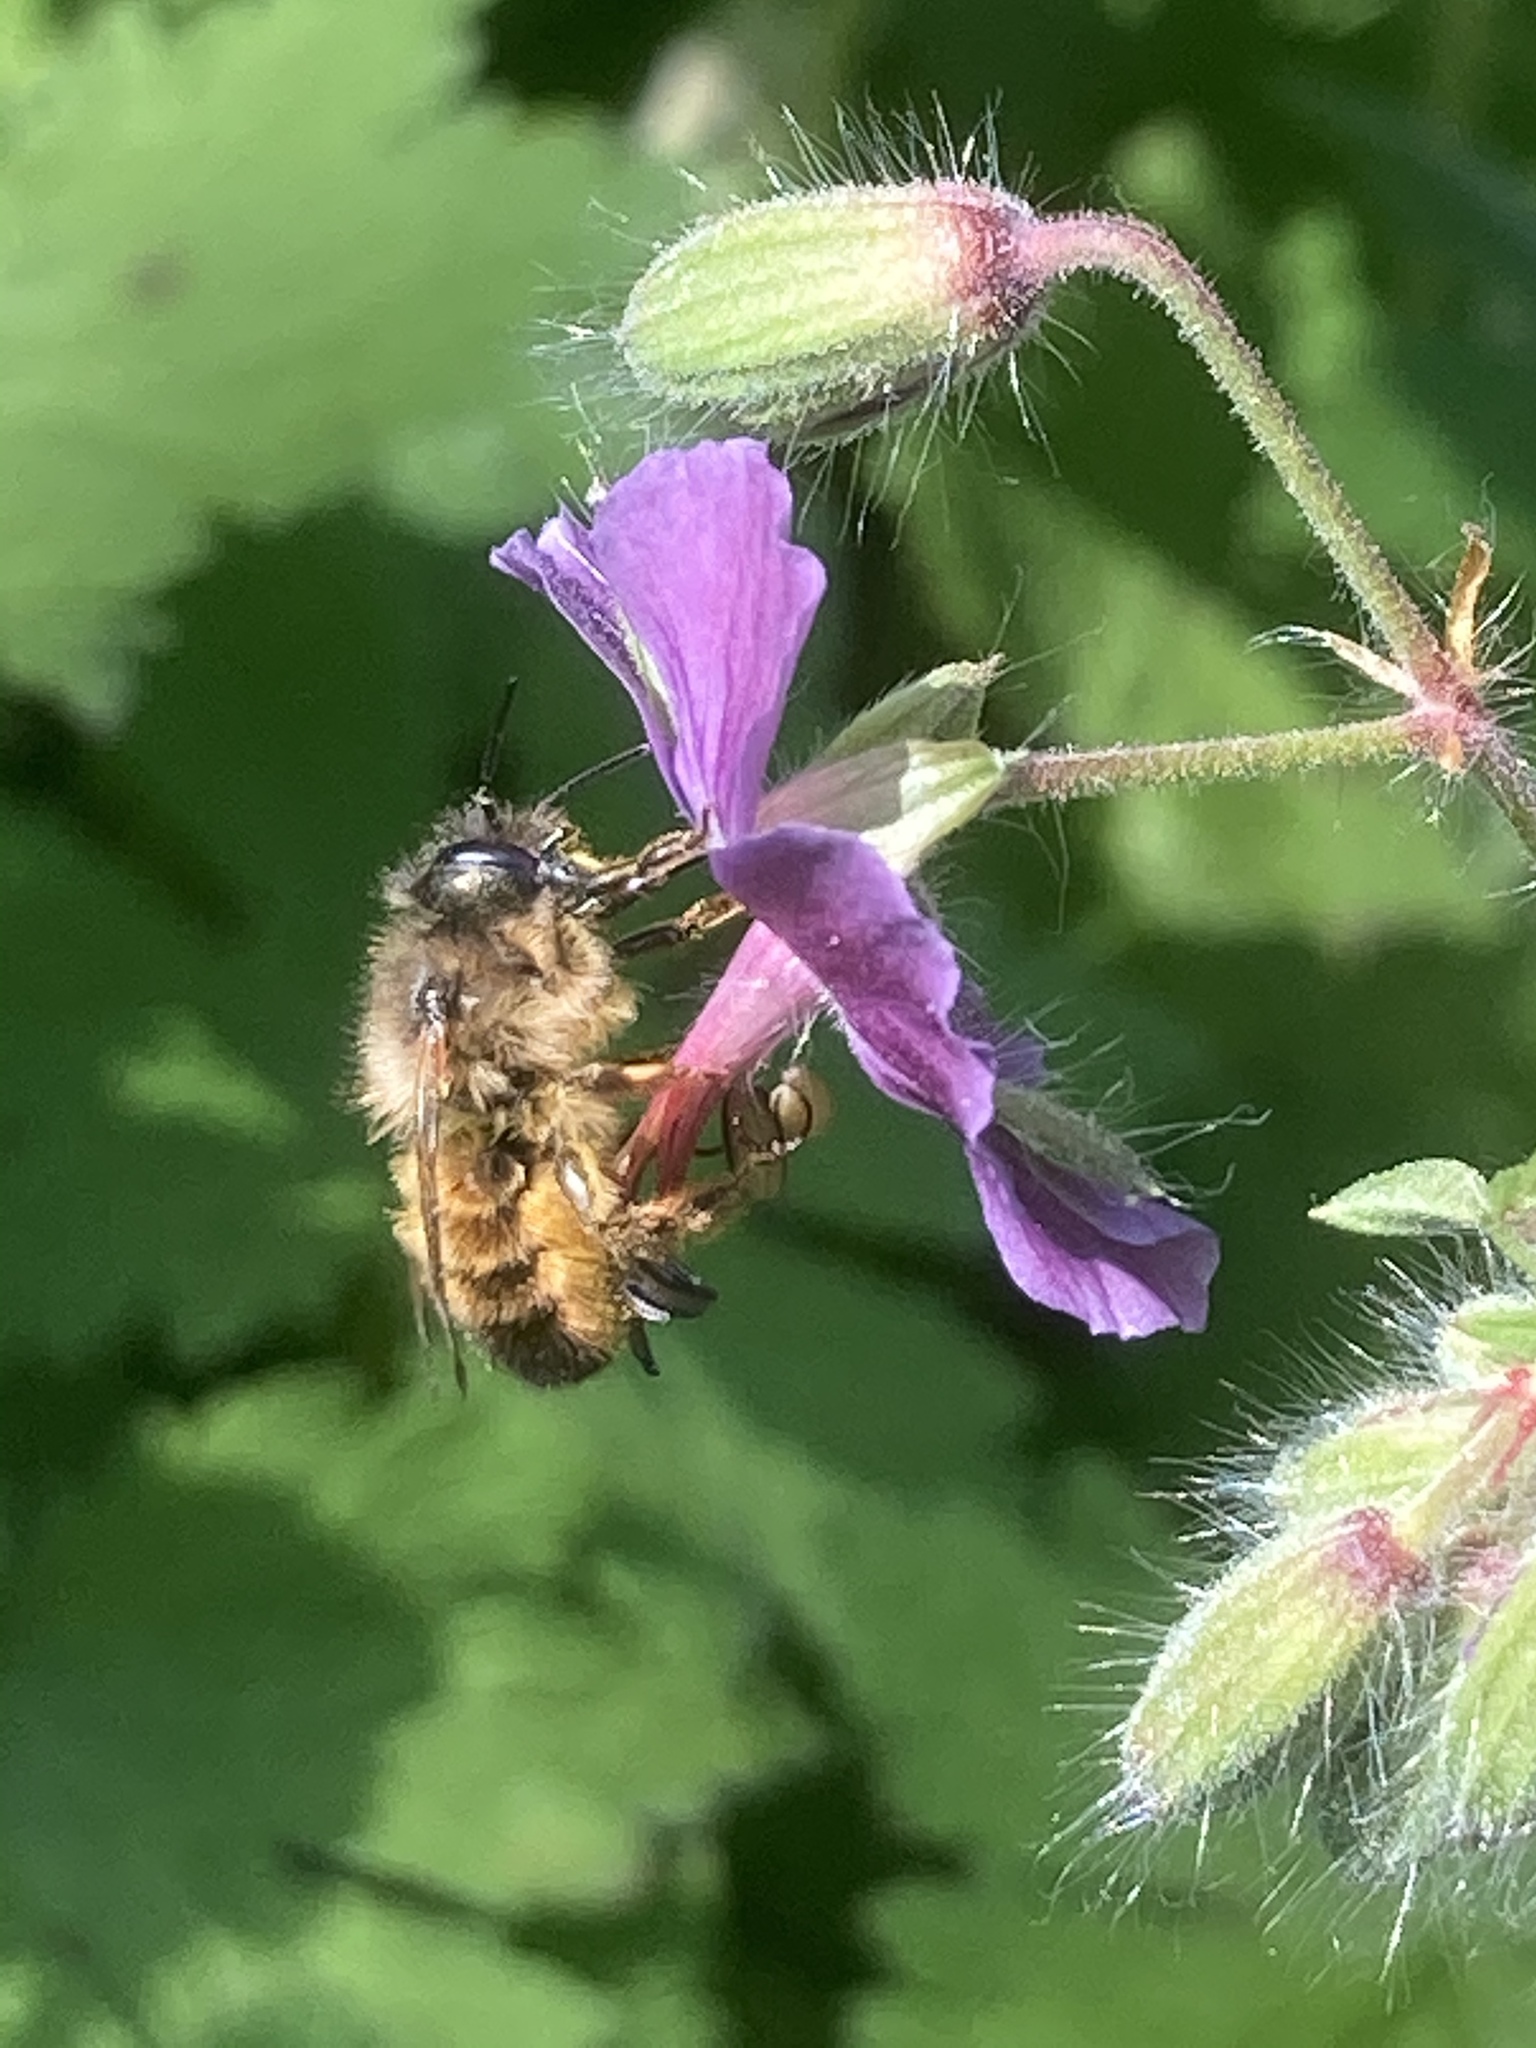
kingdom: Animalia
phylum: Arthropoda
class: Insecta
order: Hymenoptera
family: Megachilidae
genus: Osmia
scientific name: Osmia bicornis
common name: Red mason bee
